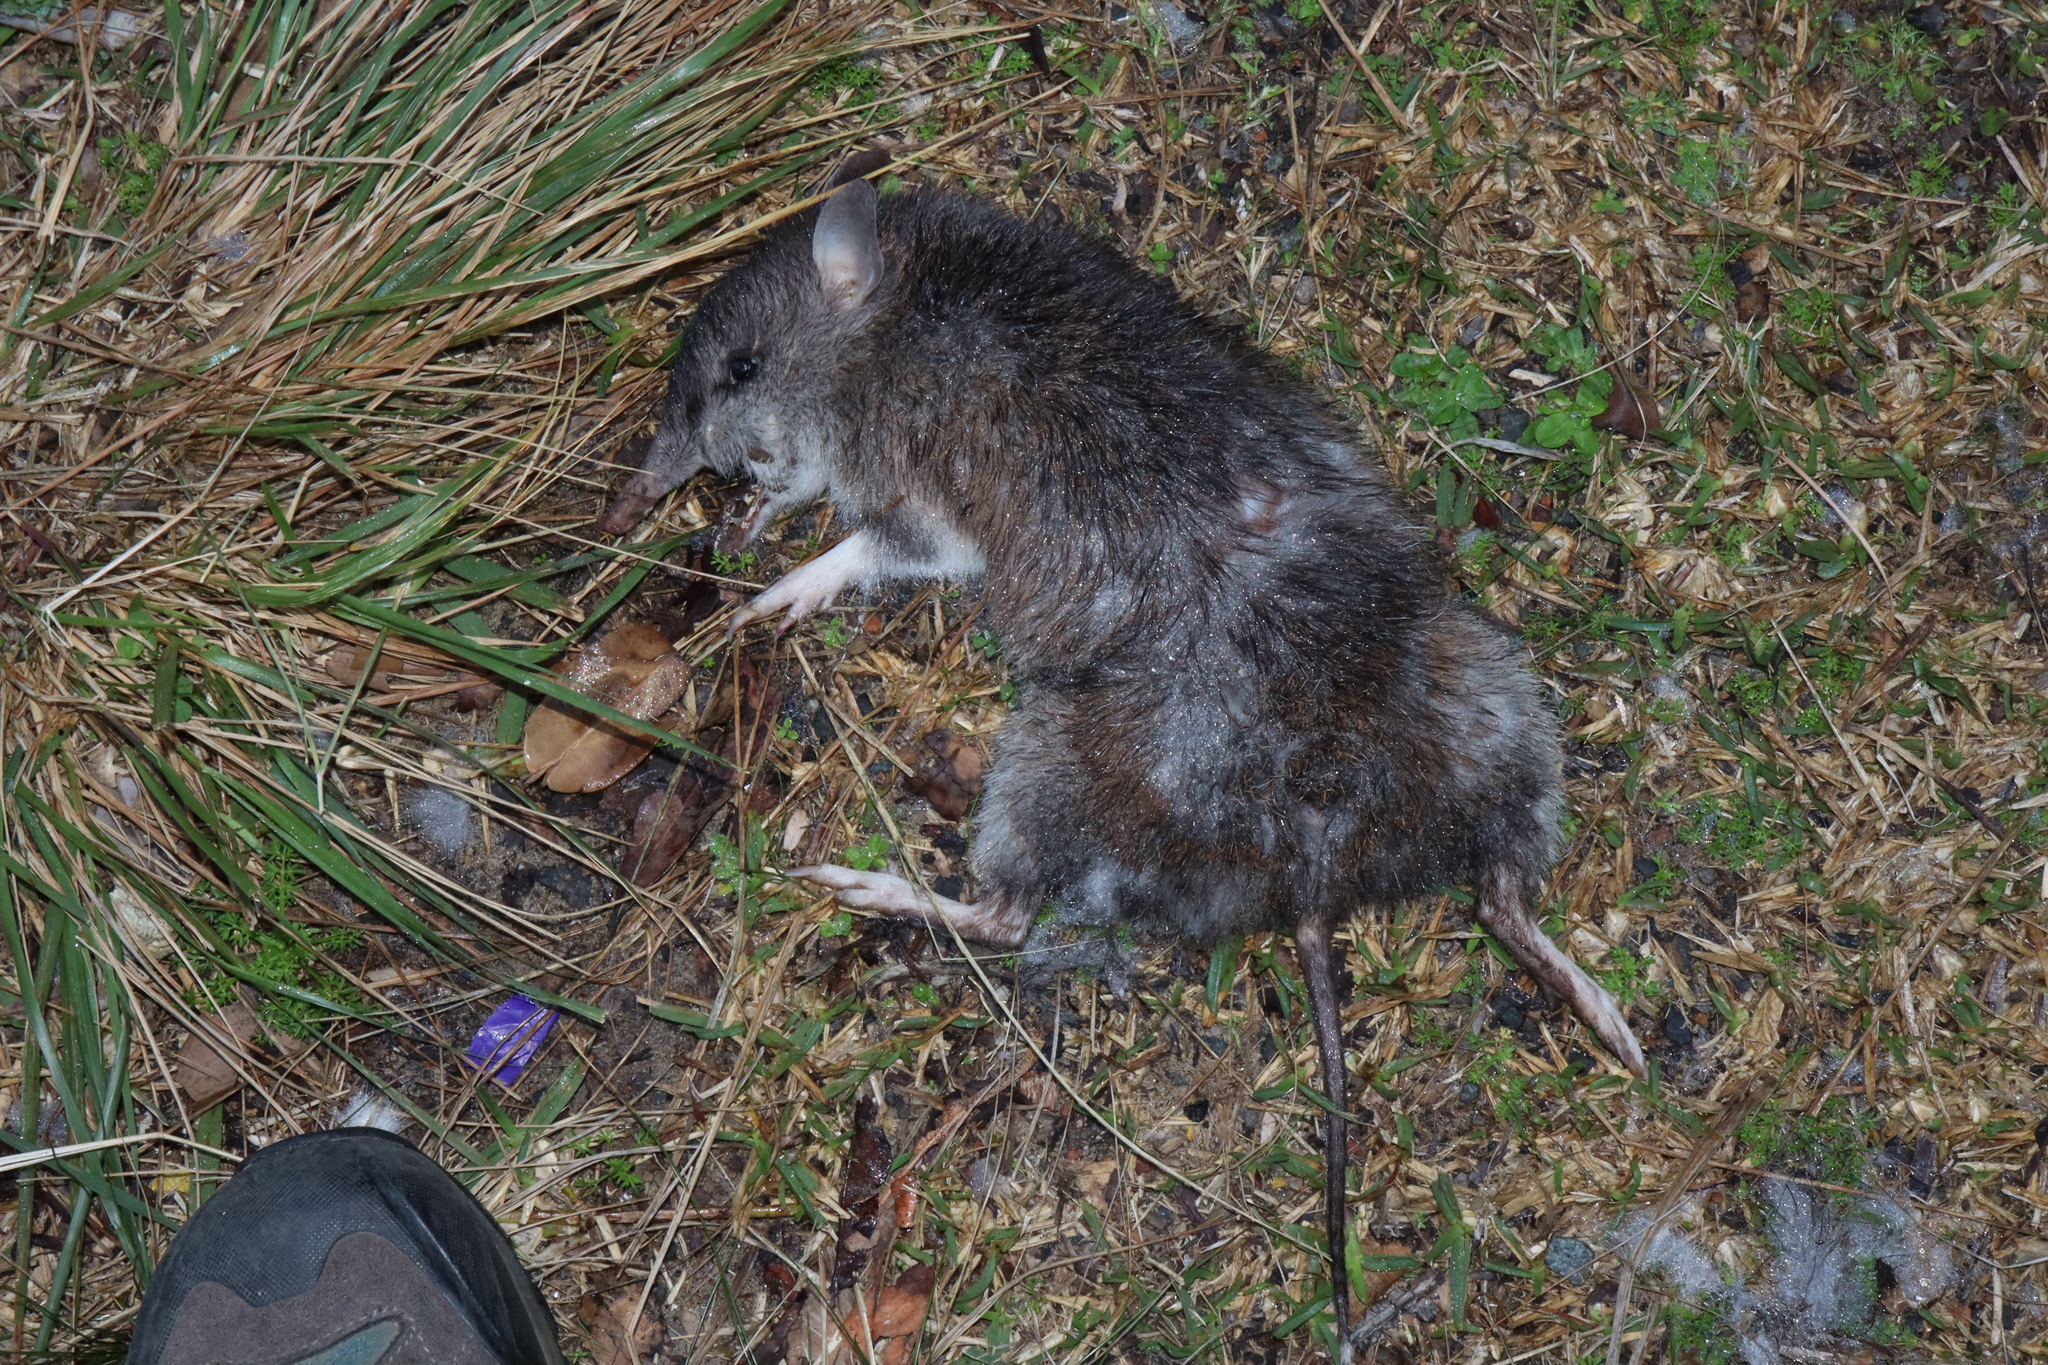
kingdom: Animalia
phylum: Chordata
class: Mammalia
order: Peramelemorphia
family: Peramelidae
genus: Perameles
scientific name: Perameles nasuta
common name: Long-nosed bandicoot
